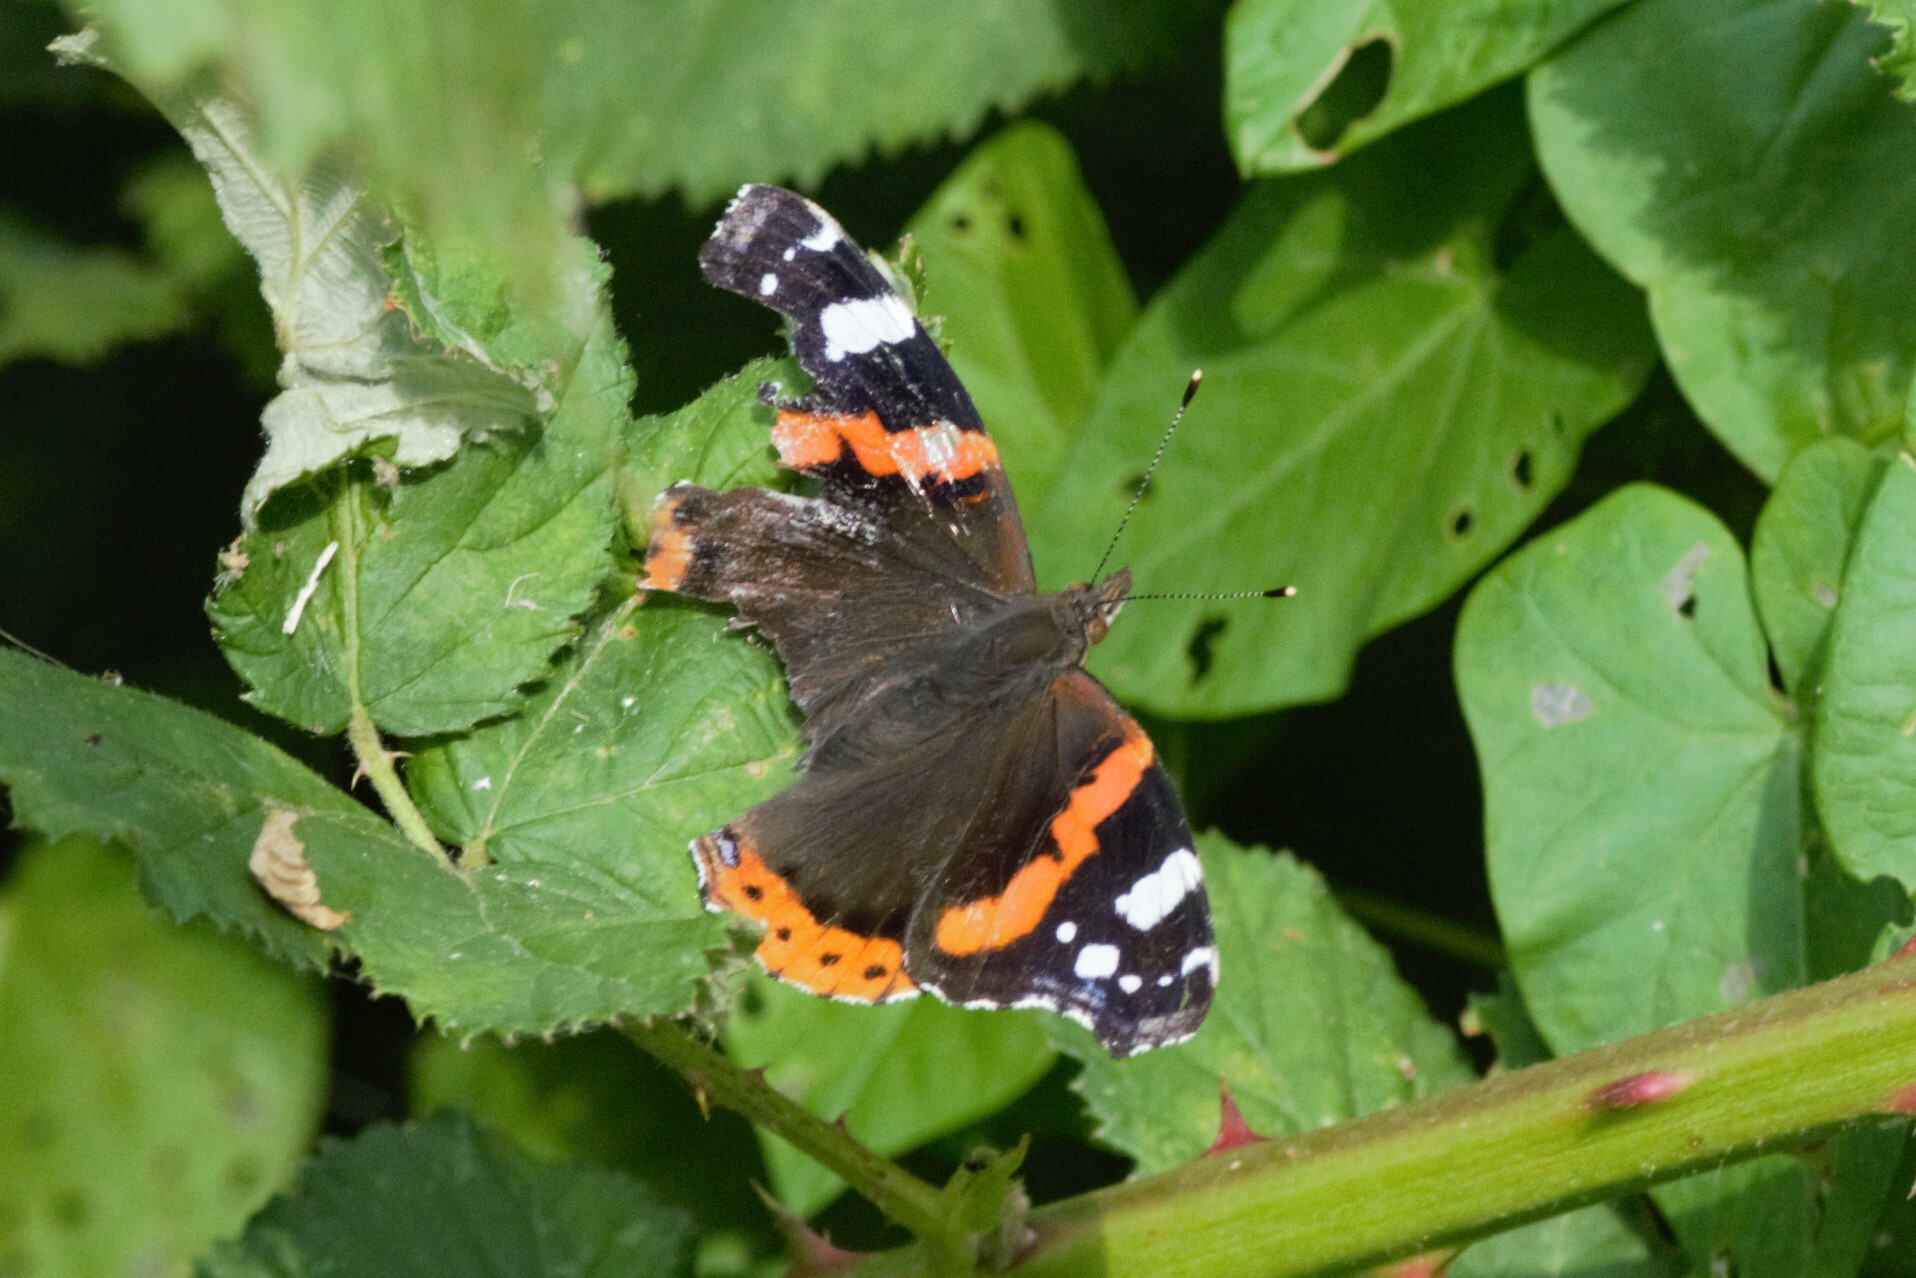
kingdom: Animalia
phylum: Arthropoda
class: Insecta
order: Lepidoptera
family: Nymphalidae
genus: Vanessa
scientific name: Vanessa atalanta
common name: Red admiral
